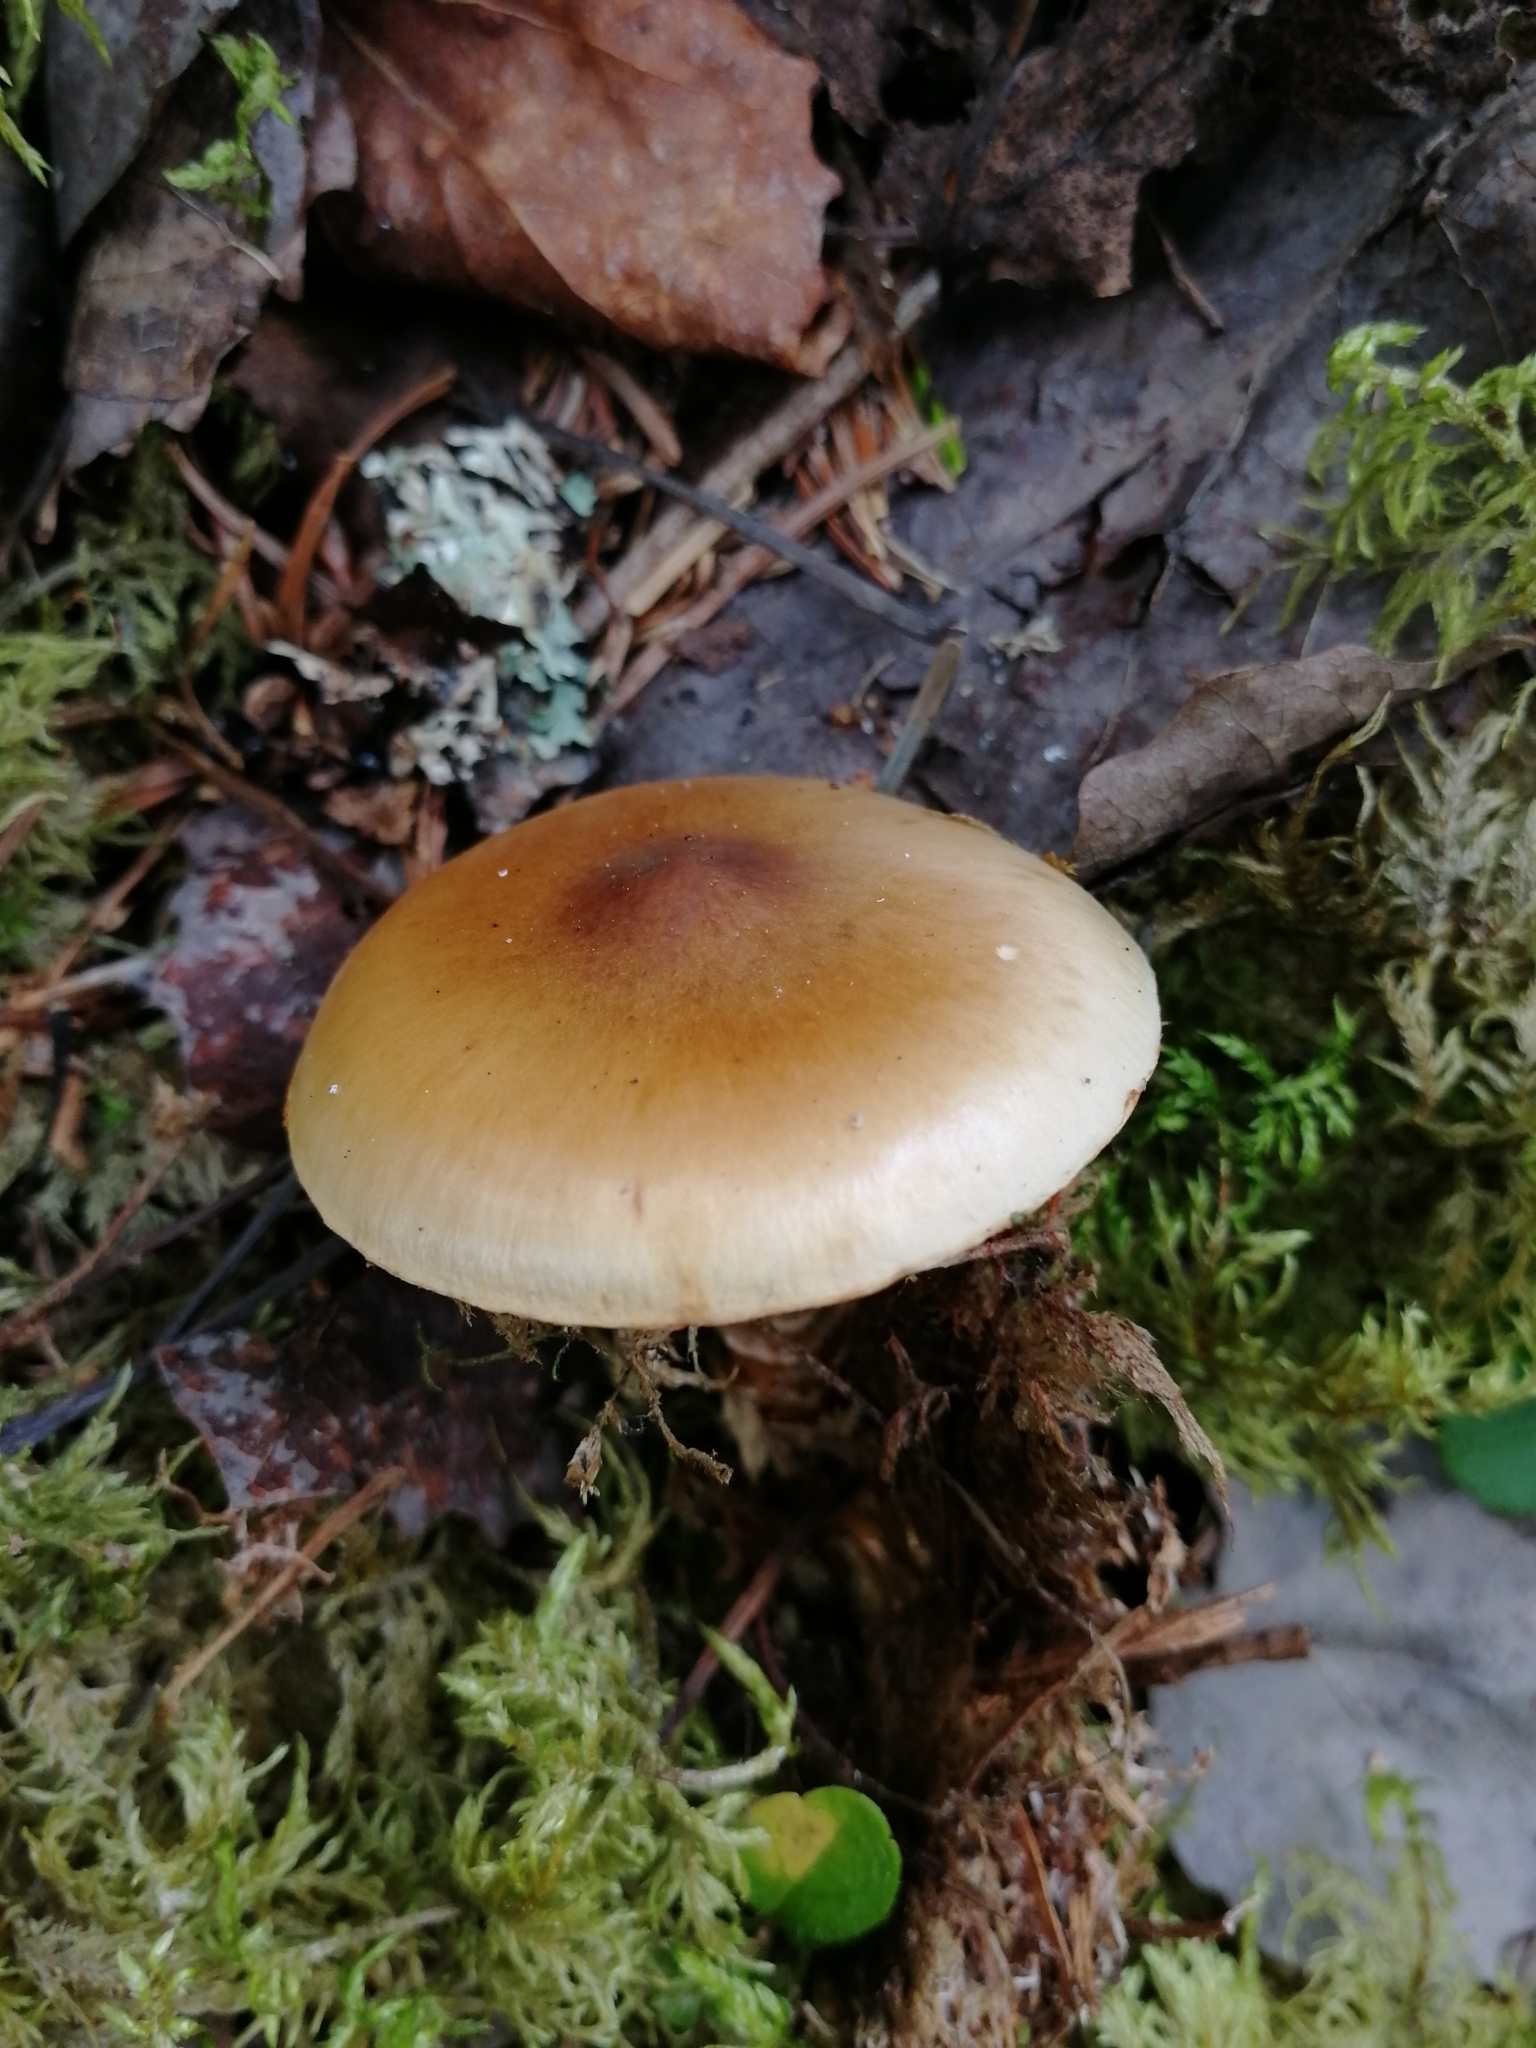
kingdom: Fungi
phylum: Basidiomycota
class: Agaricomycetes
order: Agaricales
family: Cortinariaceae
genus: Cortinarius
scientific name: Cortinarius trivialis
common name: Girdled webcap
